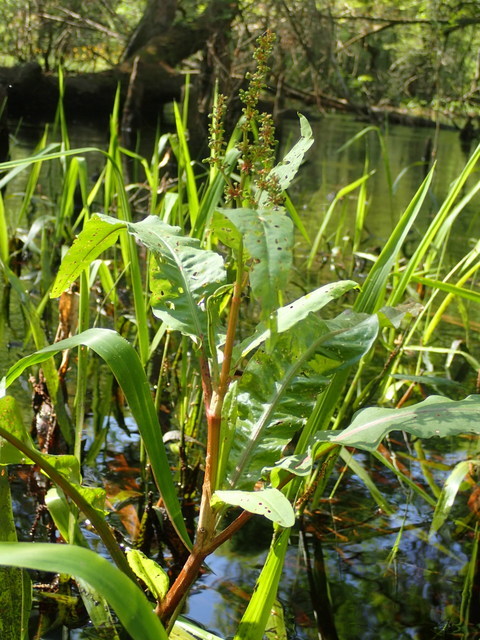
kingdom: Plantae
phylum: Tracheophyta
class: Magnoliopsida
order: Caryophyllales
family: Polygonaceae
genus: Rumex
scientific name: Rumex verticillatus
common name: Swamp dock
